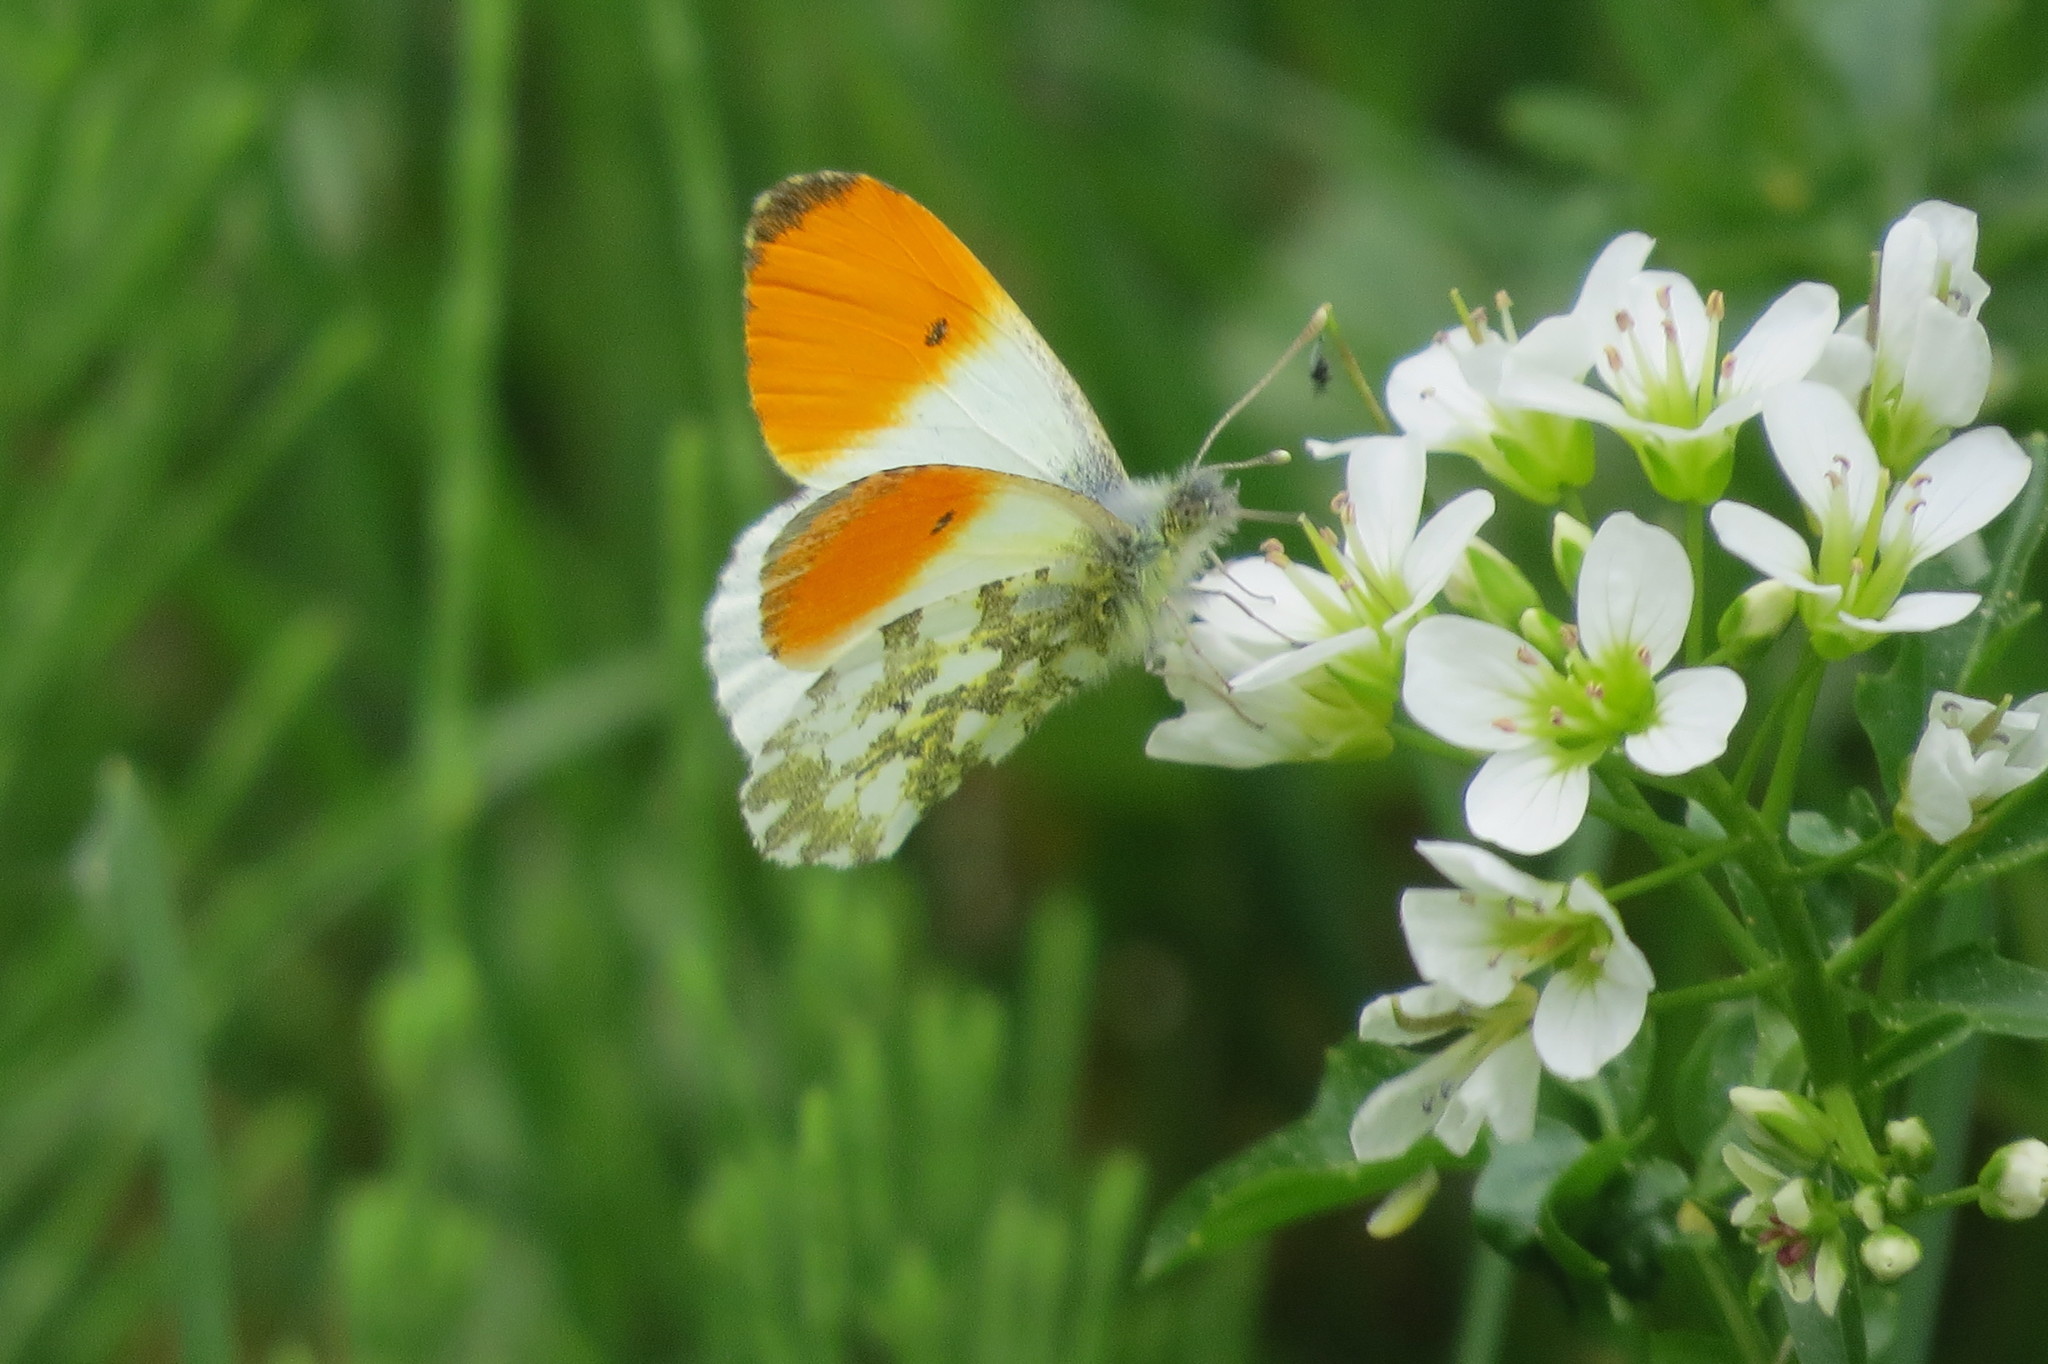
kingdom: Animalia
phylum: Arthropoda
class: Insecta
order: Lepidoptera
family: Pieridae
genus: Anthocharis
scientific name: Anthocharis cardamines
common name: Orange-tip
